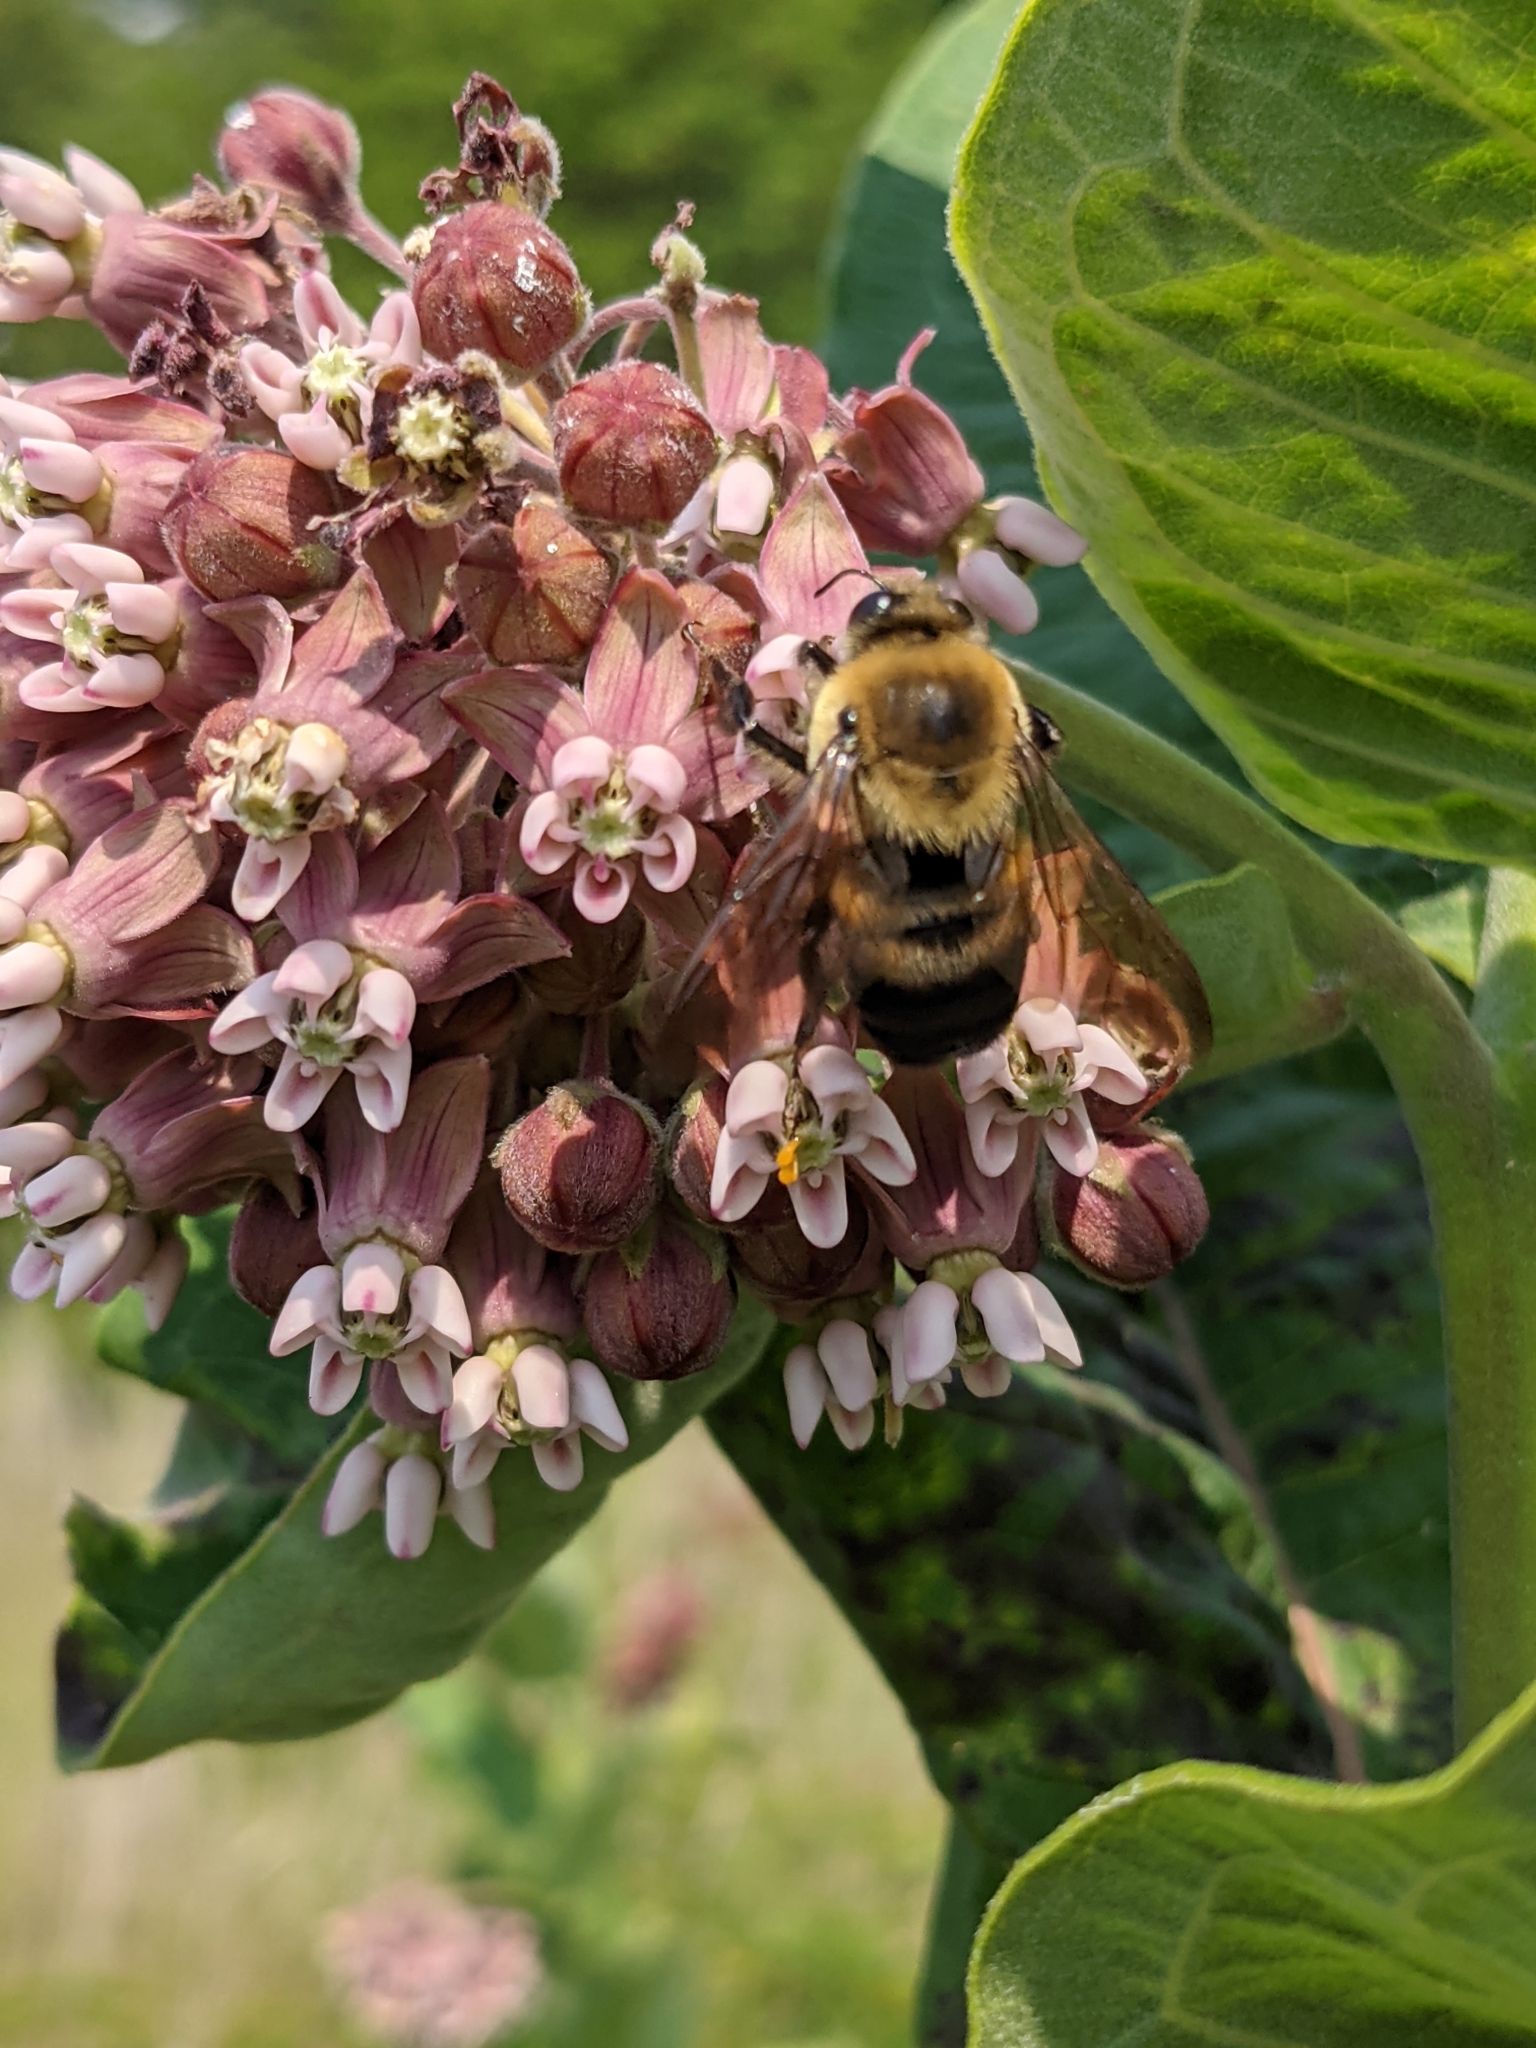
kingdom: Animalia
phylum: Arthropoda
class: Insecta
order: Hymenoptera
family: Apidae
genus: Bombus
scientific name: Bombus griseocollis
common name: Brown-belted bumble bee
